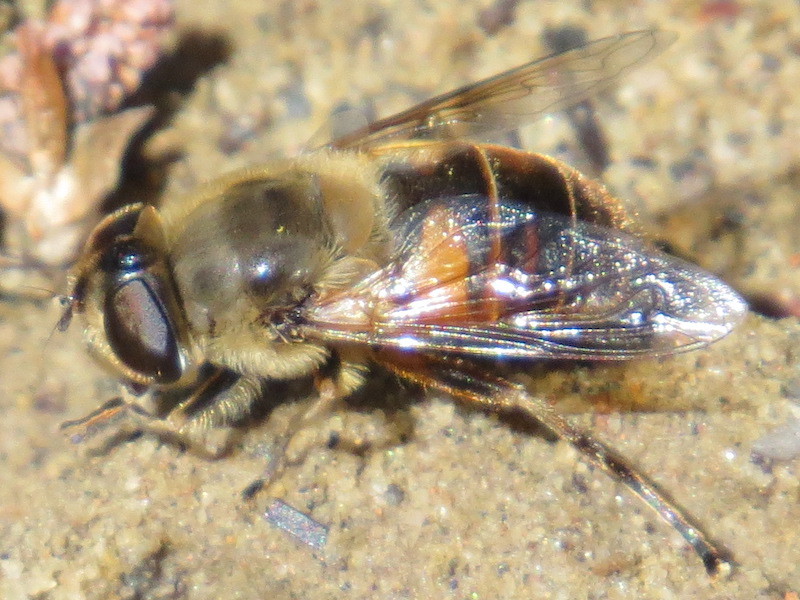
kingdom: Animalia
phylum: Arthropoda
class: Insecta
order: Diptera
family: Syrphidae
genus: Eristalis
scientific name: Eristalis tenax
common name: Drone fly
